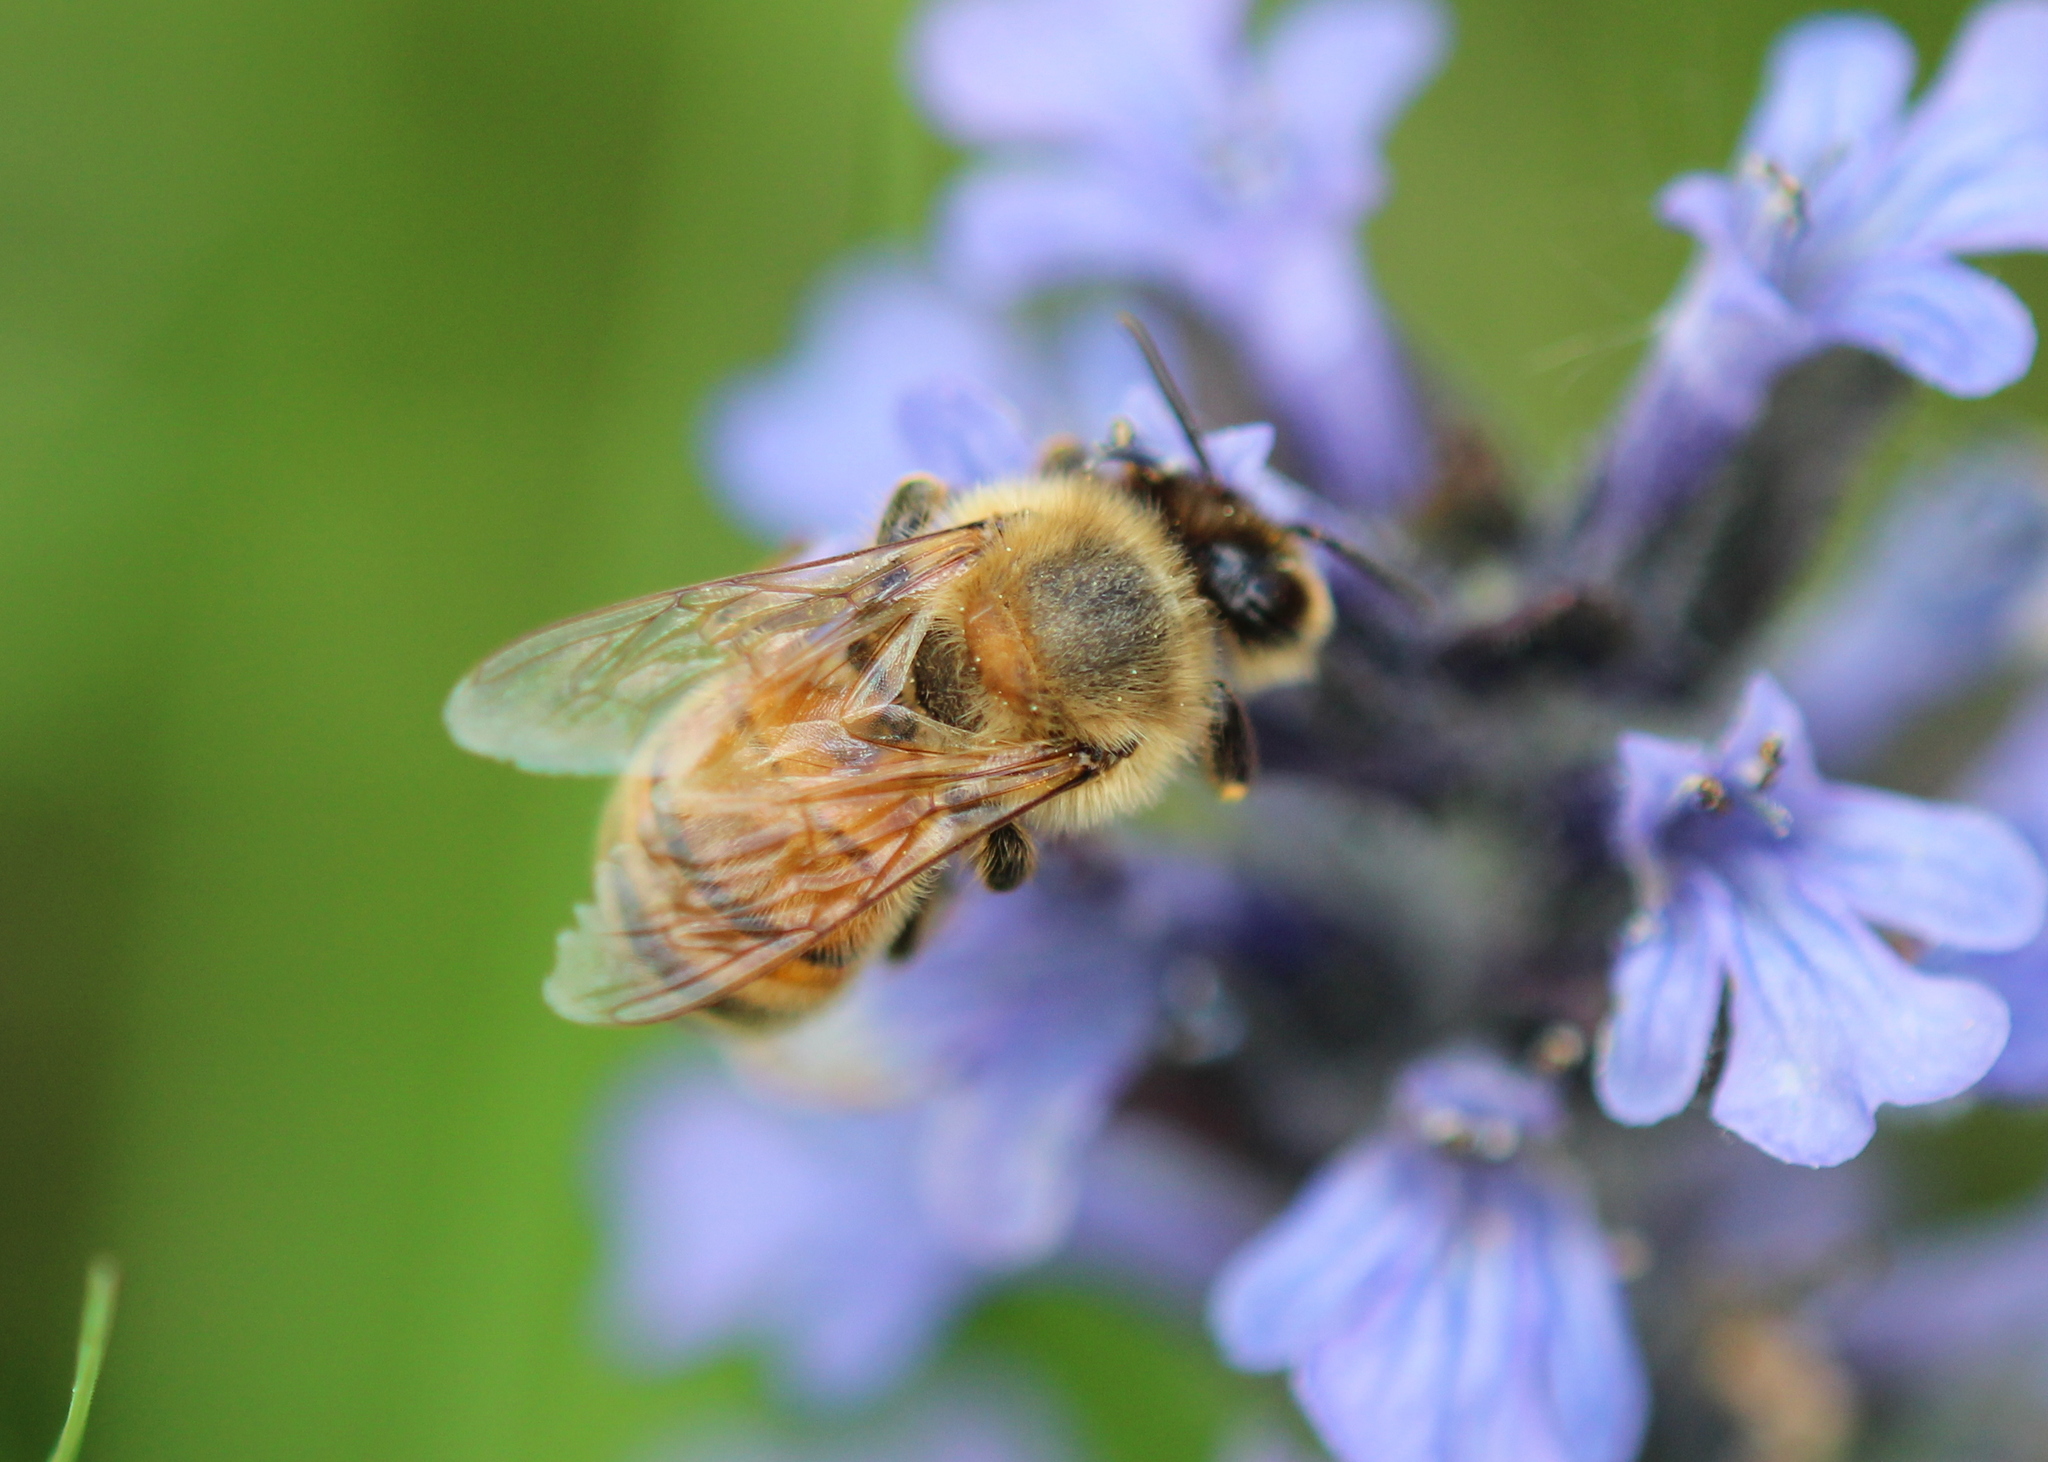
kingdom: Animalia
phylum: Arthropoda
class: Insecta
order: Hymenoptera
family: Apidae
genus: Apis
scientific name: Apis mellifera
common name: Honey bee
